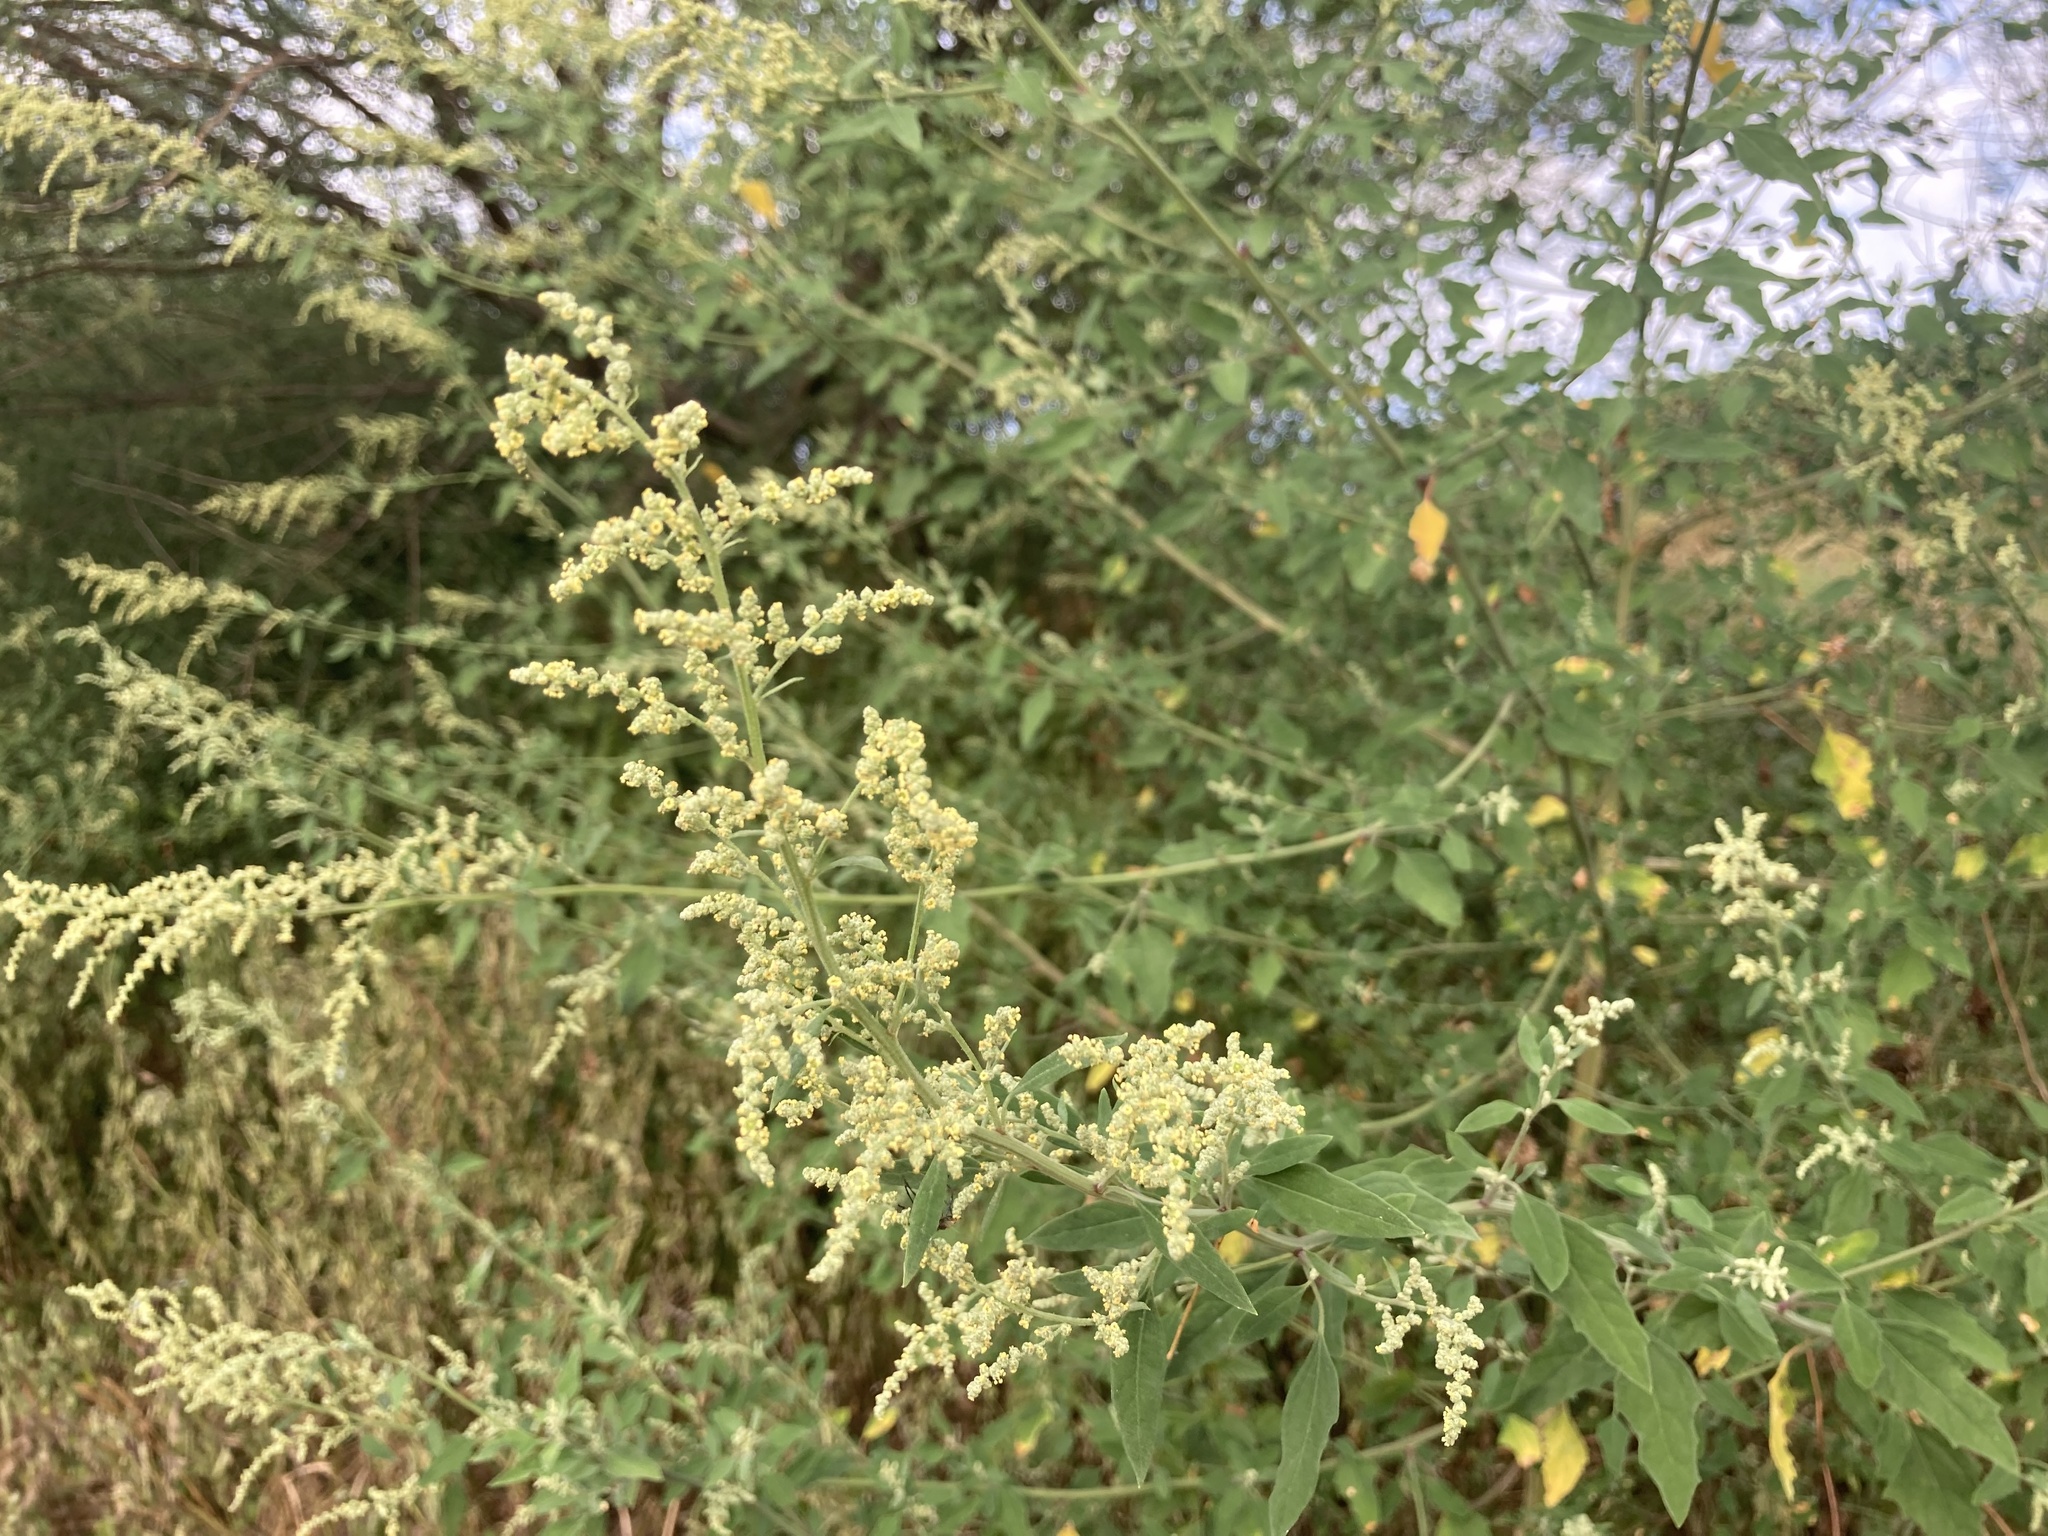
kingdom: Plantae
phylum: Tracheophyta
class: Magnoliopsida
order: Lamiales
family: Verbenaceae
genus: Aloysia
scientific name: Aloysia gratissima
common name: Common bee-brush
